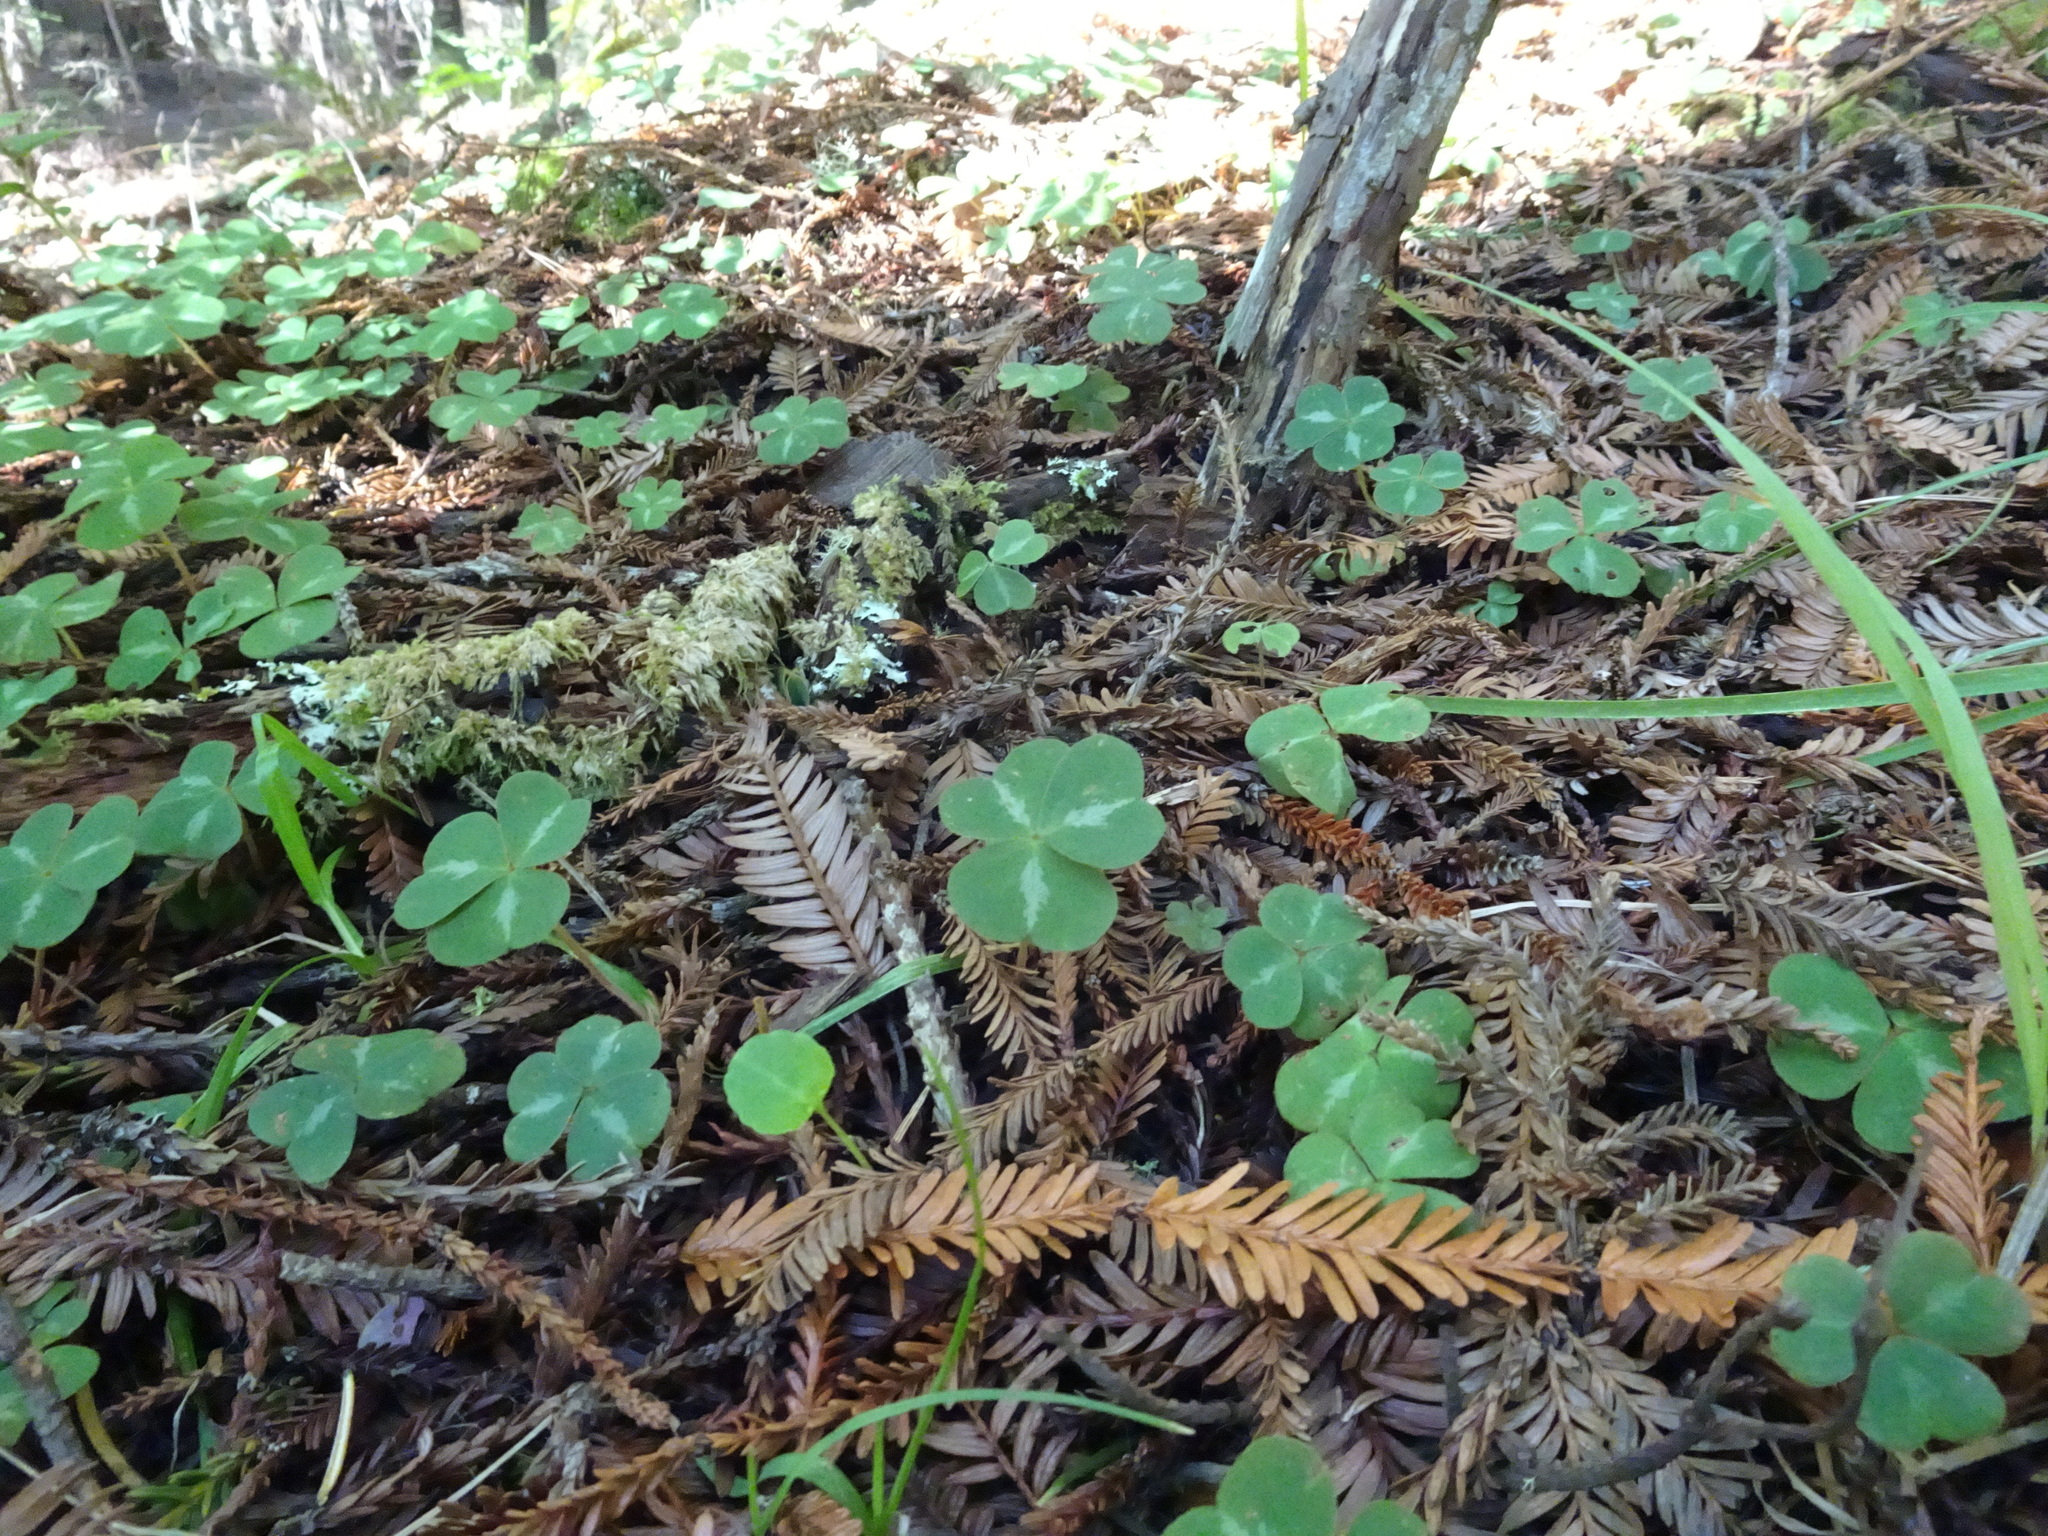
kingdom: Plantae
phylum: Tracheophyta
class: Magnoliopsida
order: Oxalidales
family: Oxalidaceae
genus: Oxalis
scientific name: Oxalis oregana
